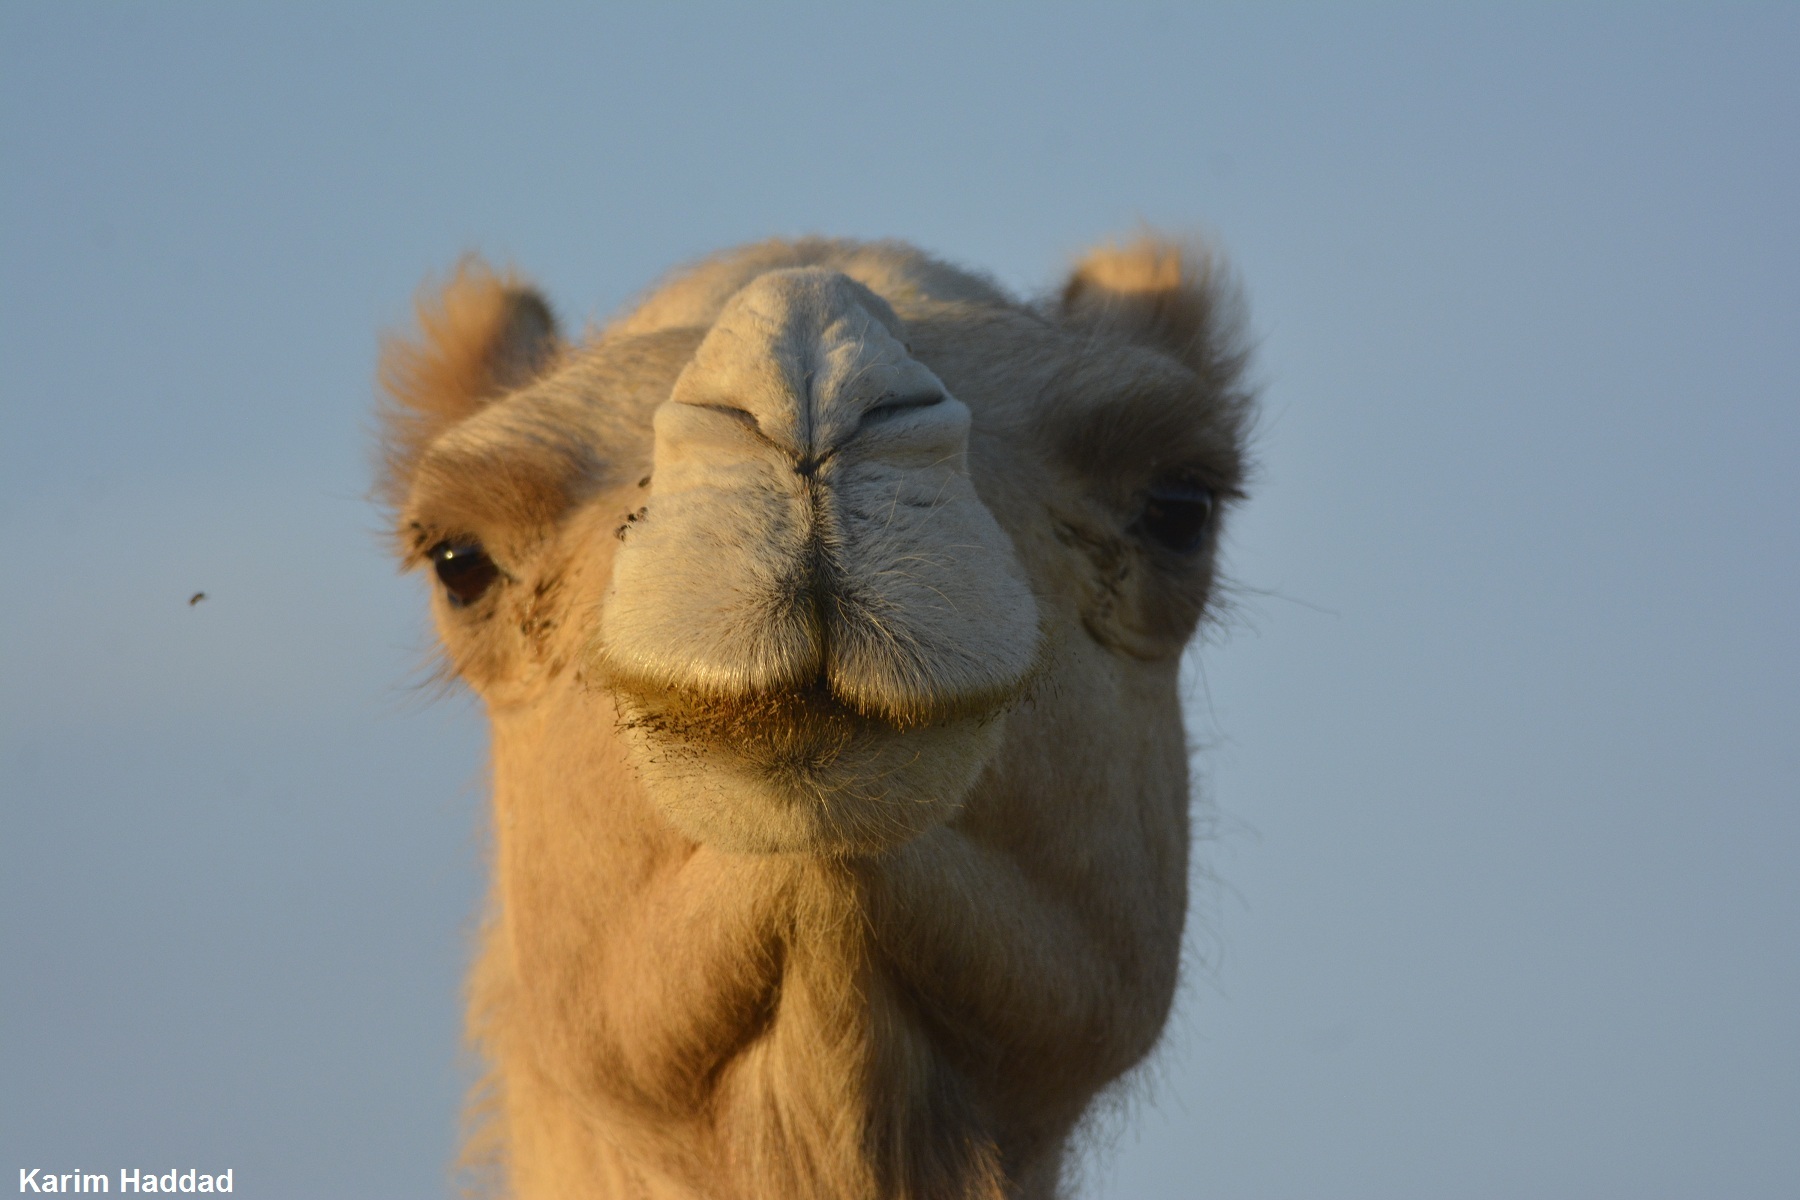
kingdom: Animalia
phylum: Chordata
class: Mammalia
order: Artiodactyla
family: Camelidae
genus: Camelus
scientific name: Camelus dromedarius
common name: One-humped camel
